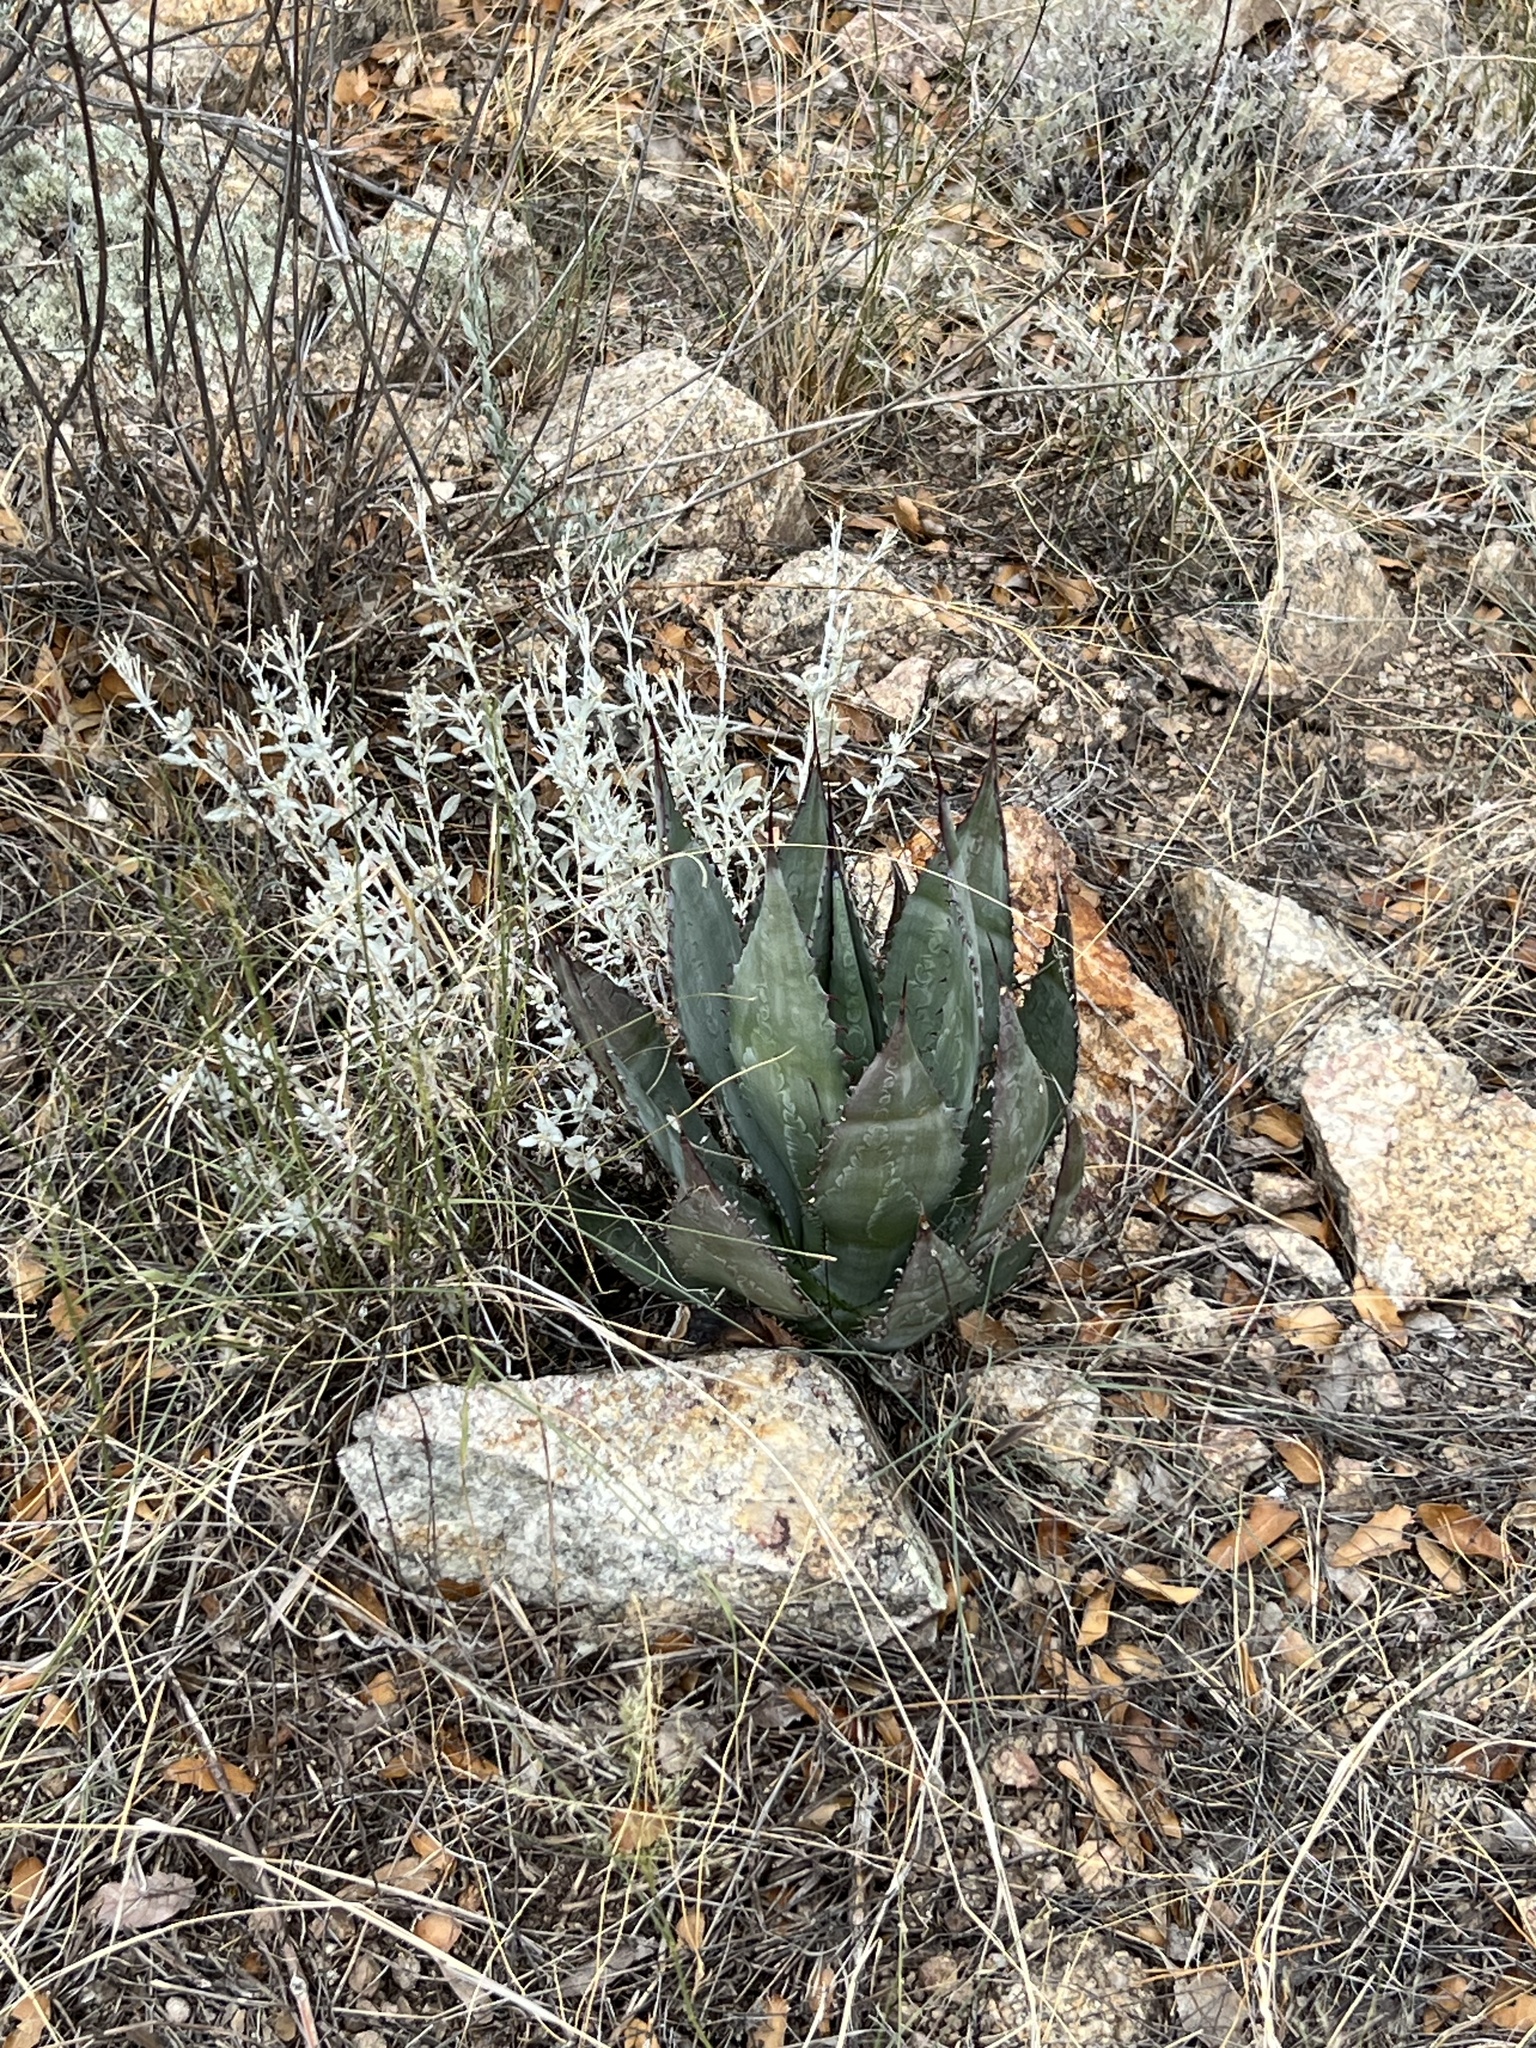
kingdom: Plantae
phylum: Tracheophyta
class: Liliopsida
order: Asparagales
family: Asparagaceae
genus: Agave
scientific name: Agave palmeri
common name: Palmer agave
